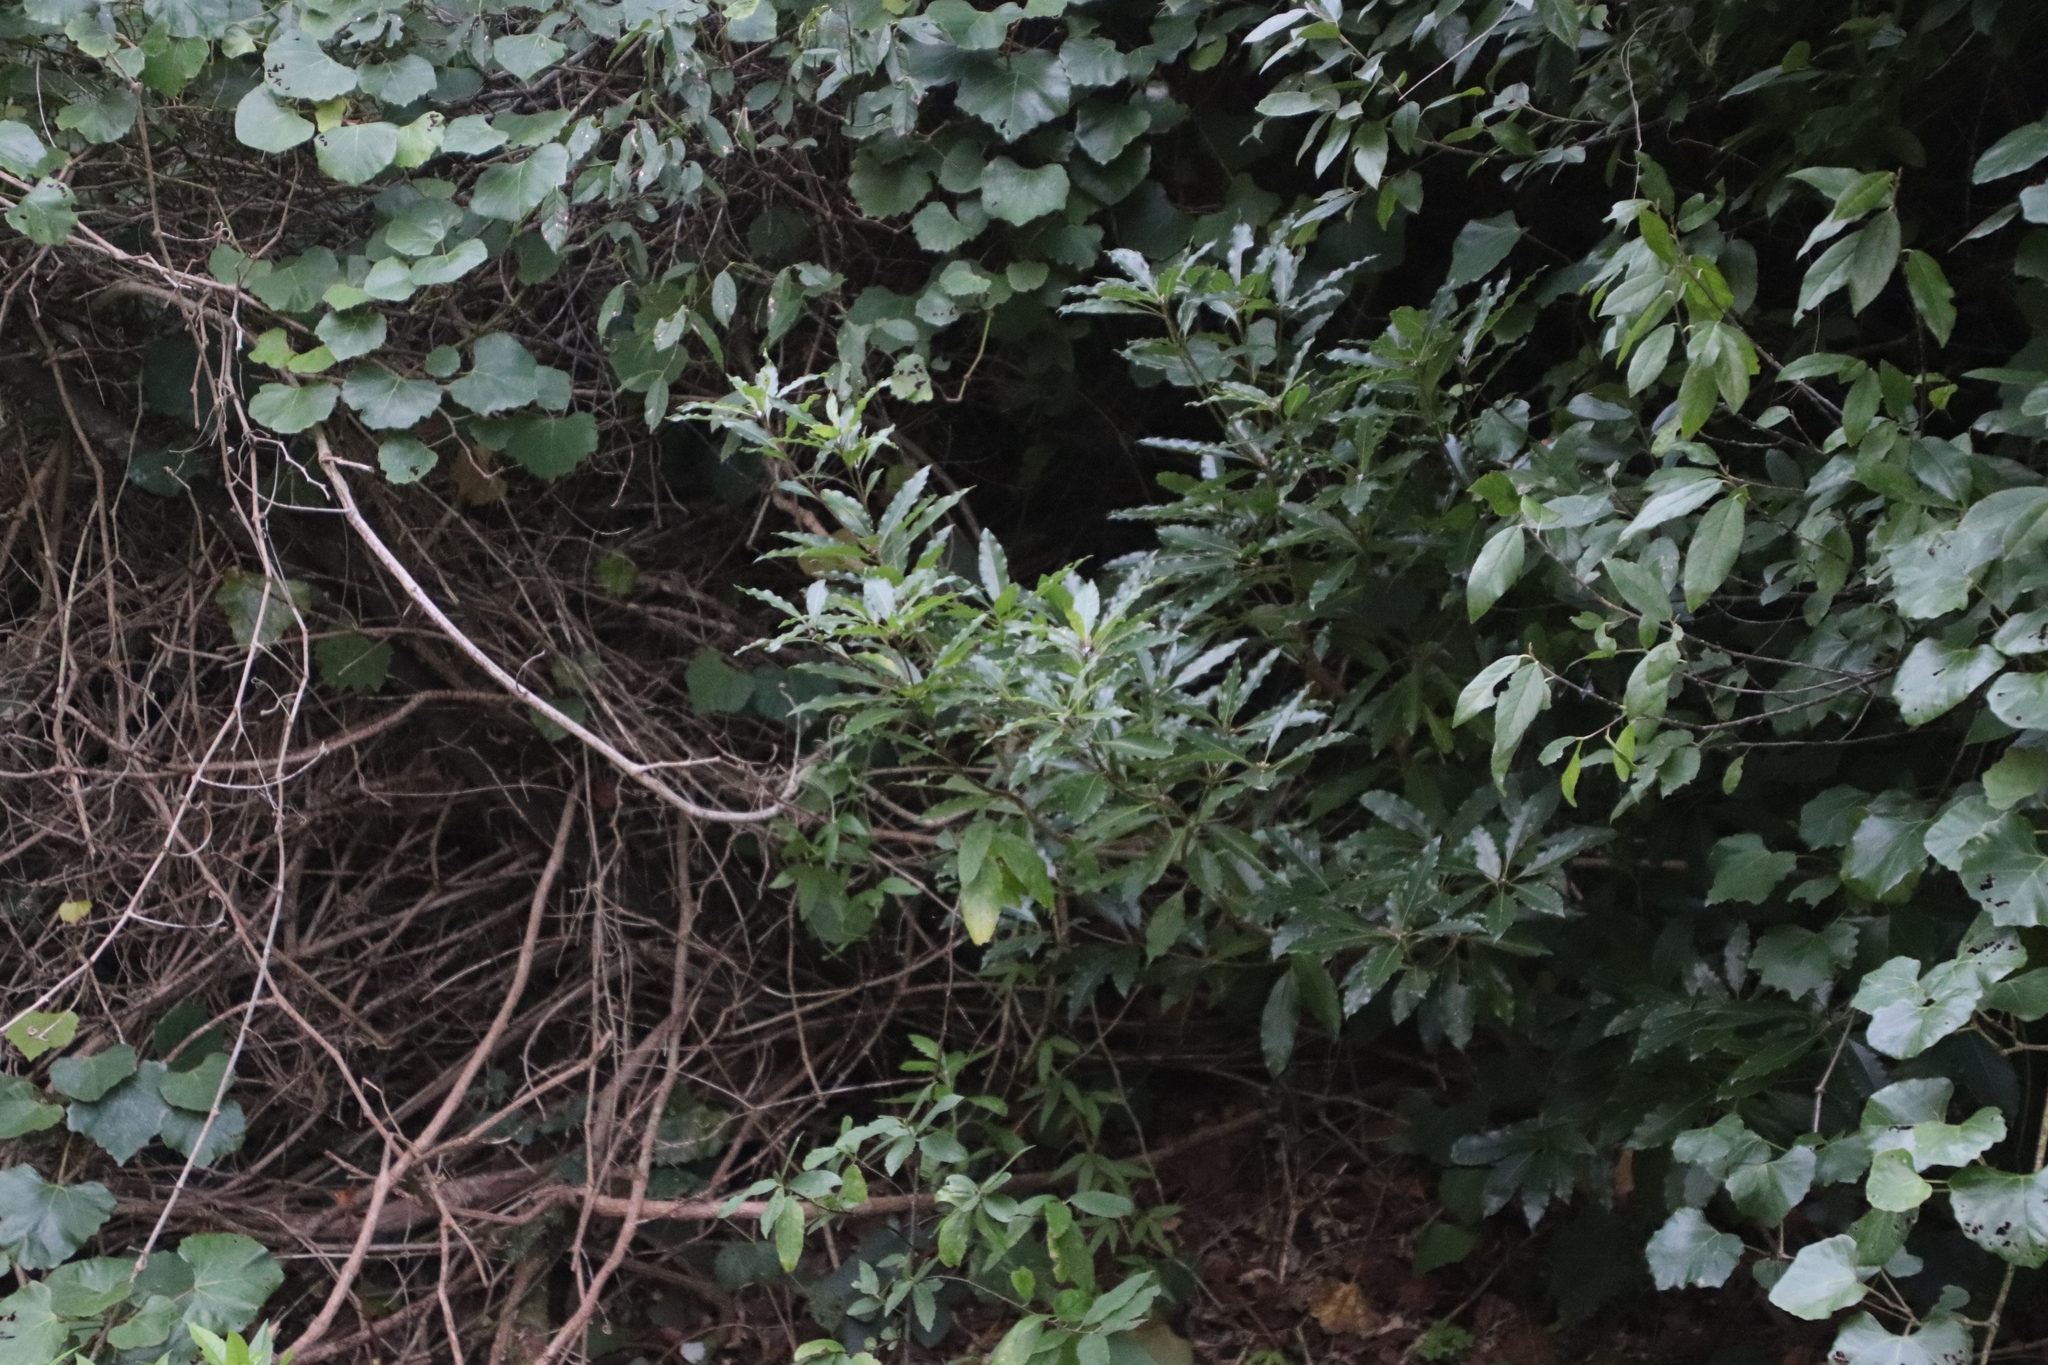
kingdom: Plantae
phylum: Tracheophyta
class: Magnoliopsida
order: Apiales
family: Pittosporaceae
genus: Pittosporum
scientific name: Pittosporum undulatum
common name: Australian cheesewood
